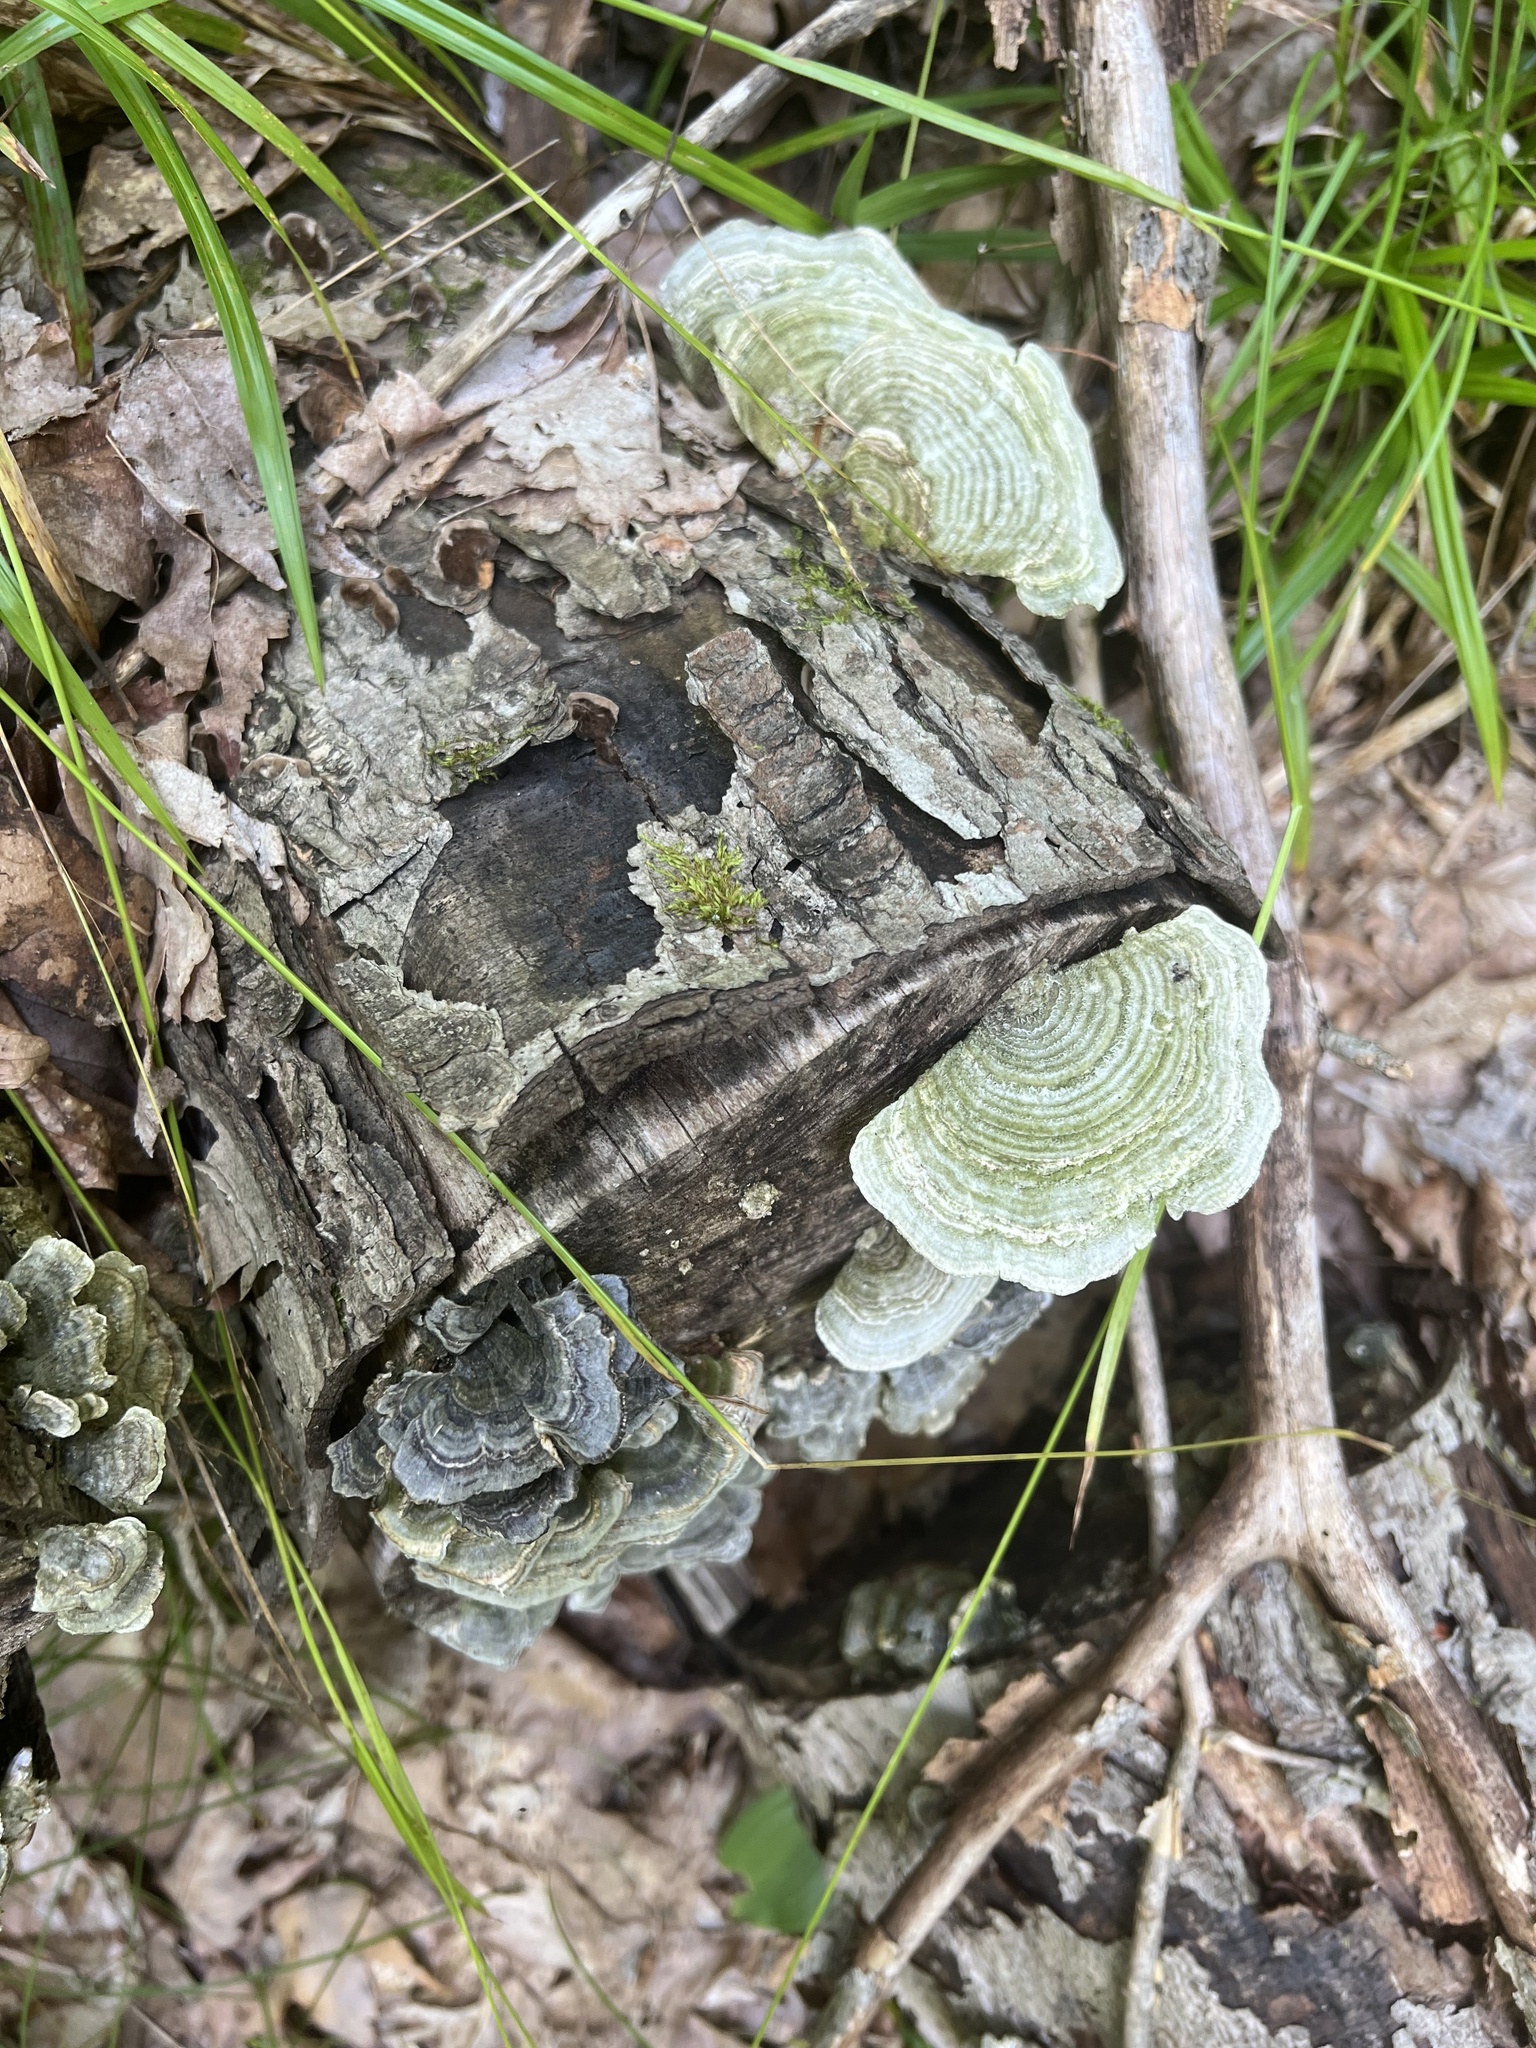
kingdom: Fungi
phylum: Basidiomycota
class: Agaricomycetes
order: Polyporales
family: Polyporaceae
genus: Lenzites
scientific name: Lenzites betulinus
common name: Birch mazegill
